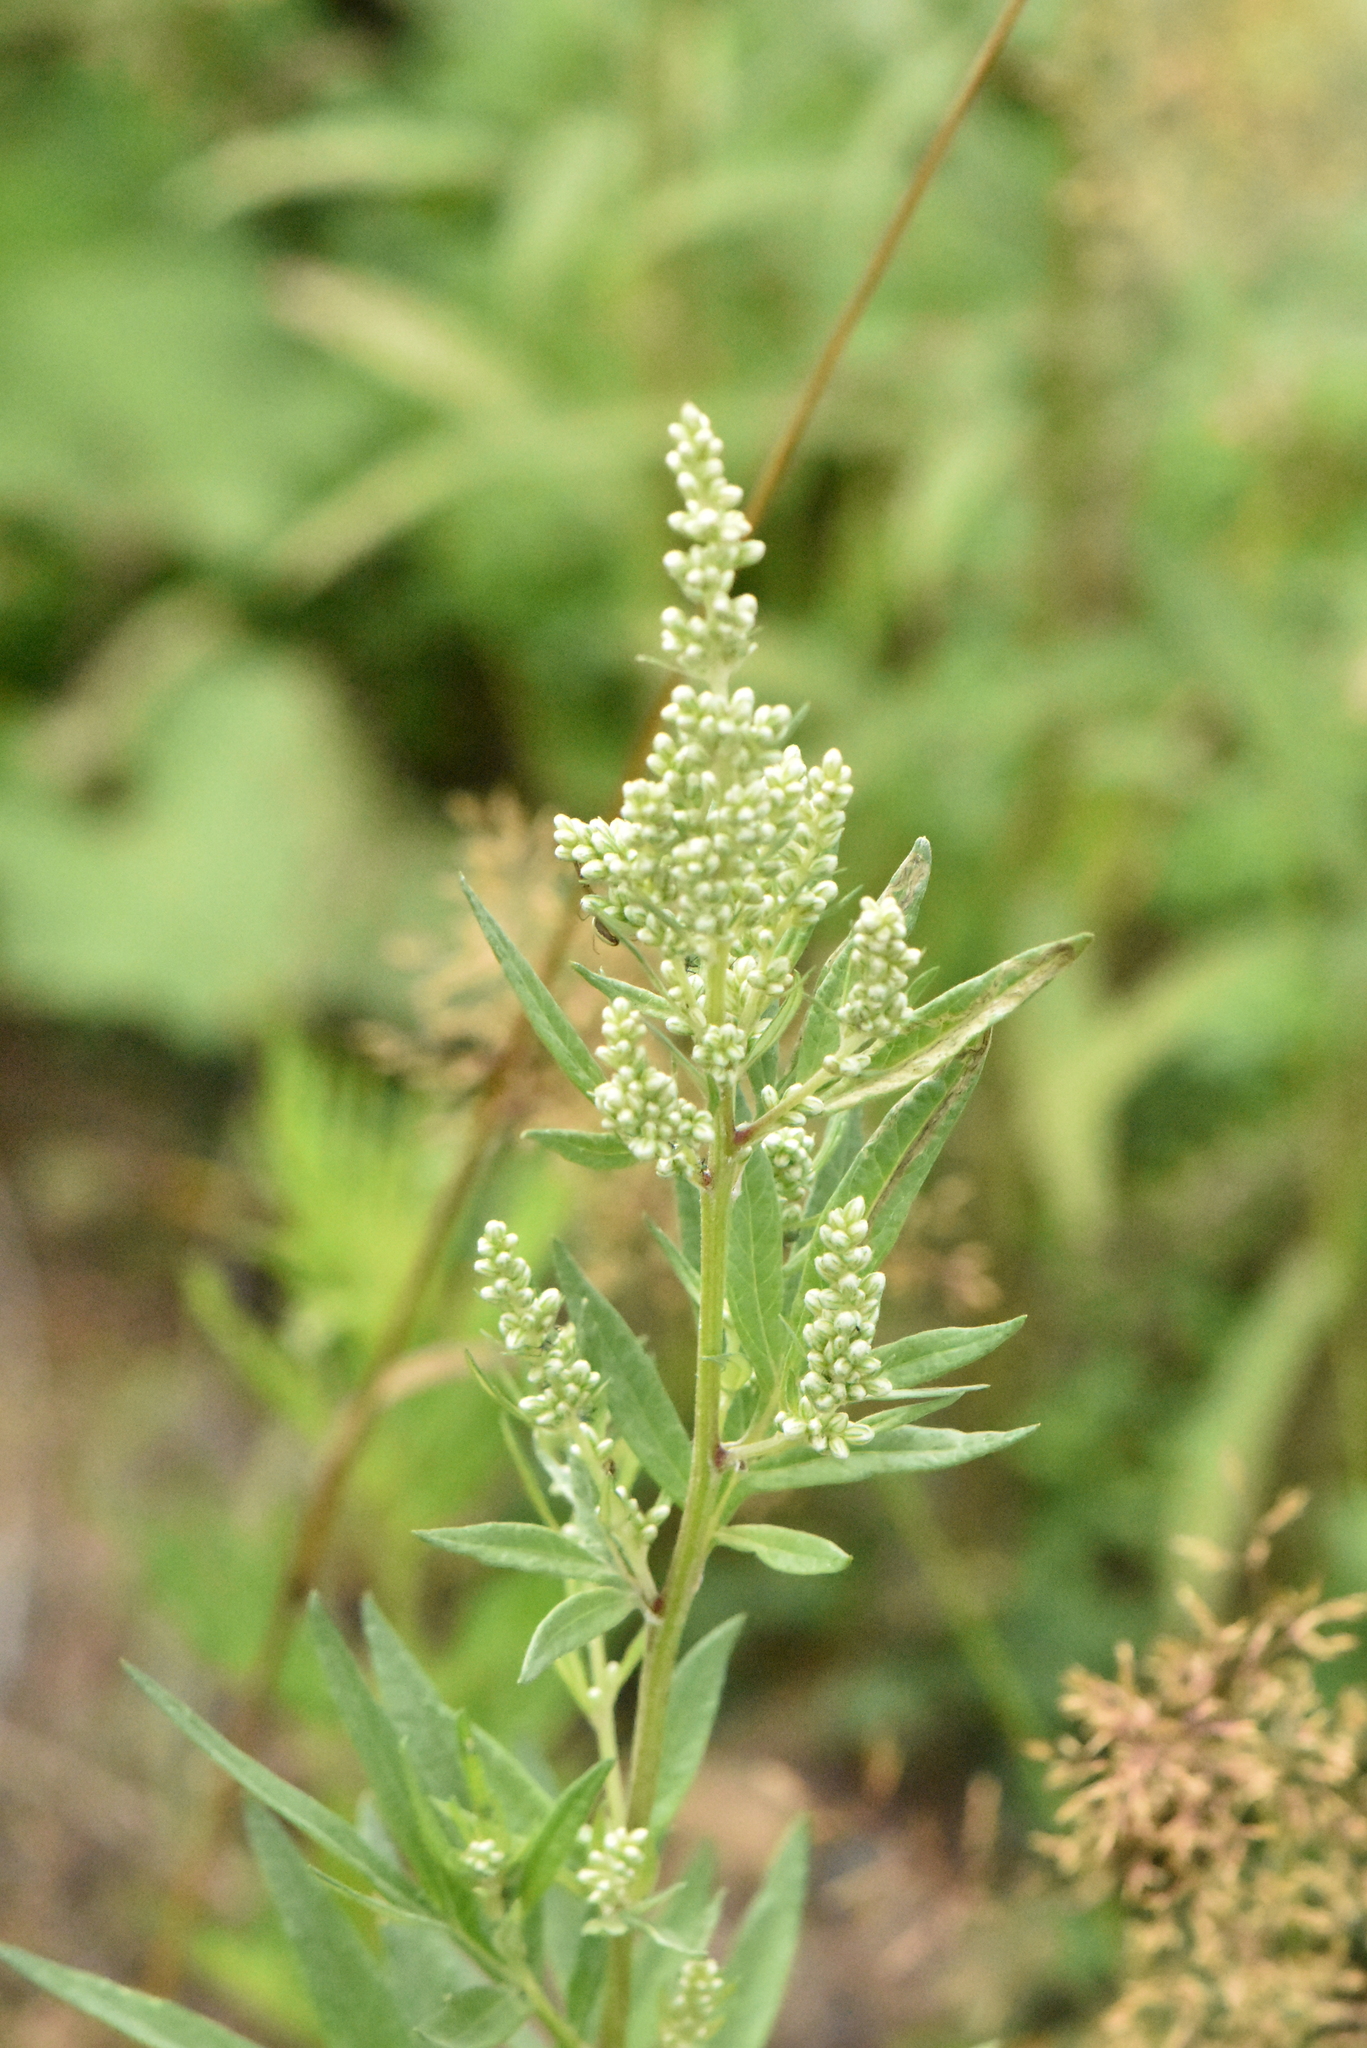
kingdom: Plantae
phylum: Tracheophyta
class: Magnoliopsida
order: Asterales
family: Asteraceae
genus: Artemisia
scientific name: Artemisia vulgaris
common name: Mugwort
